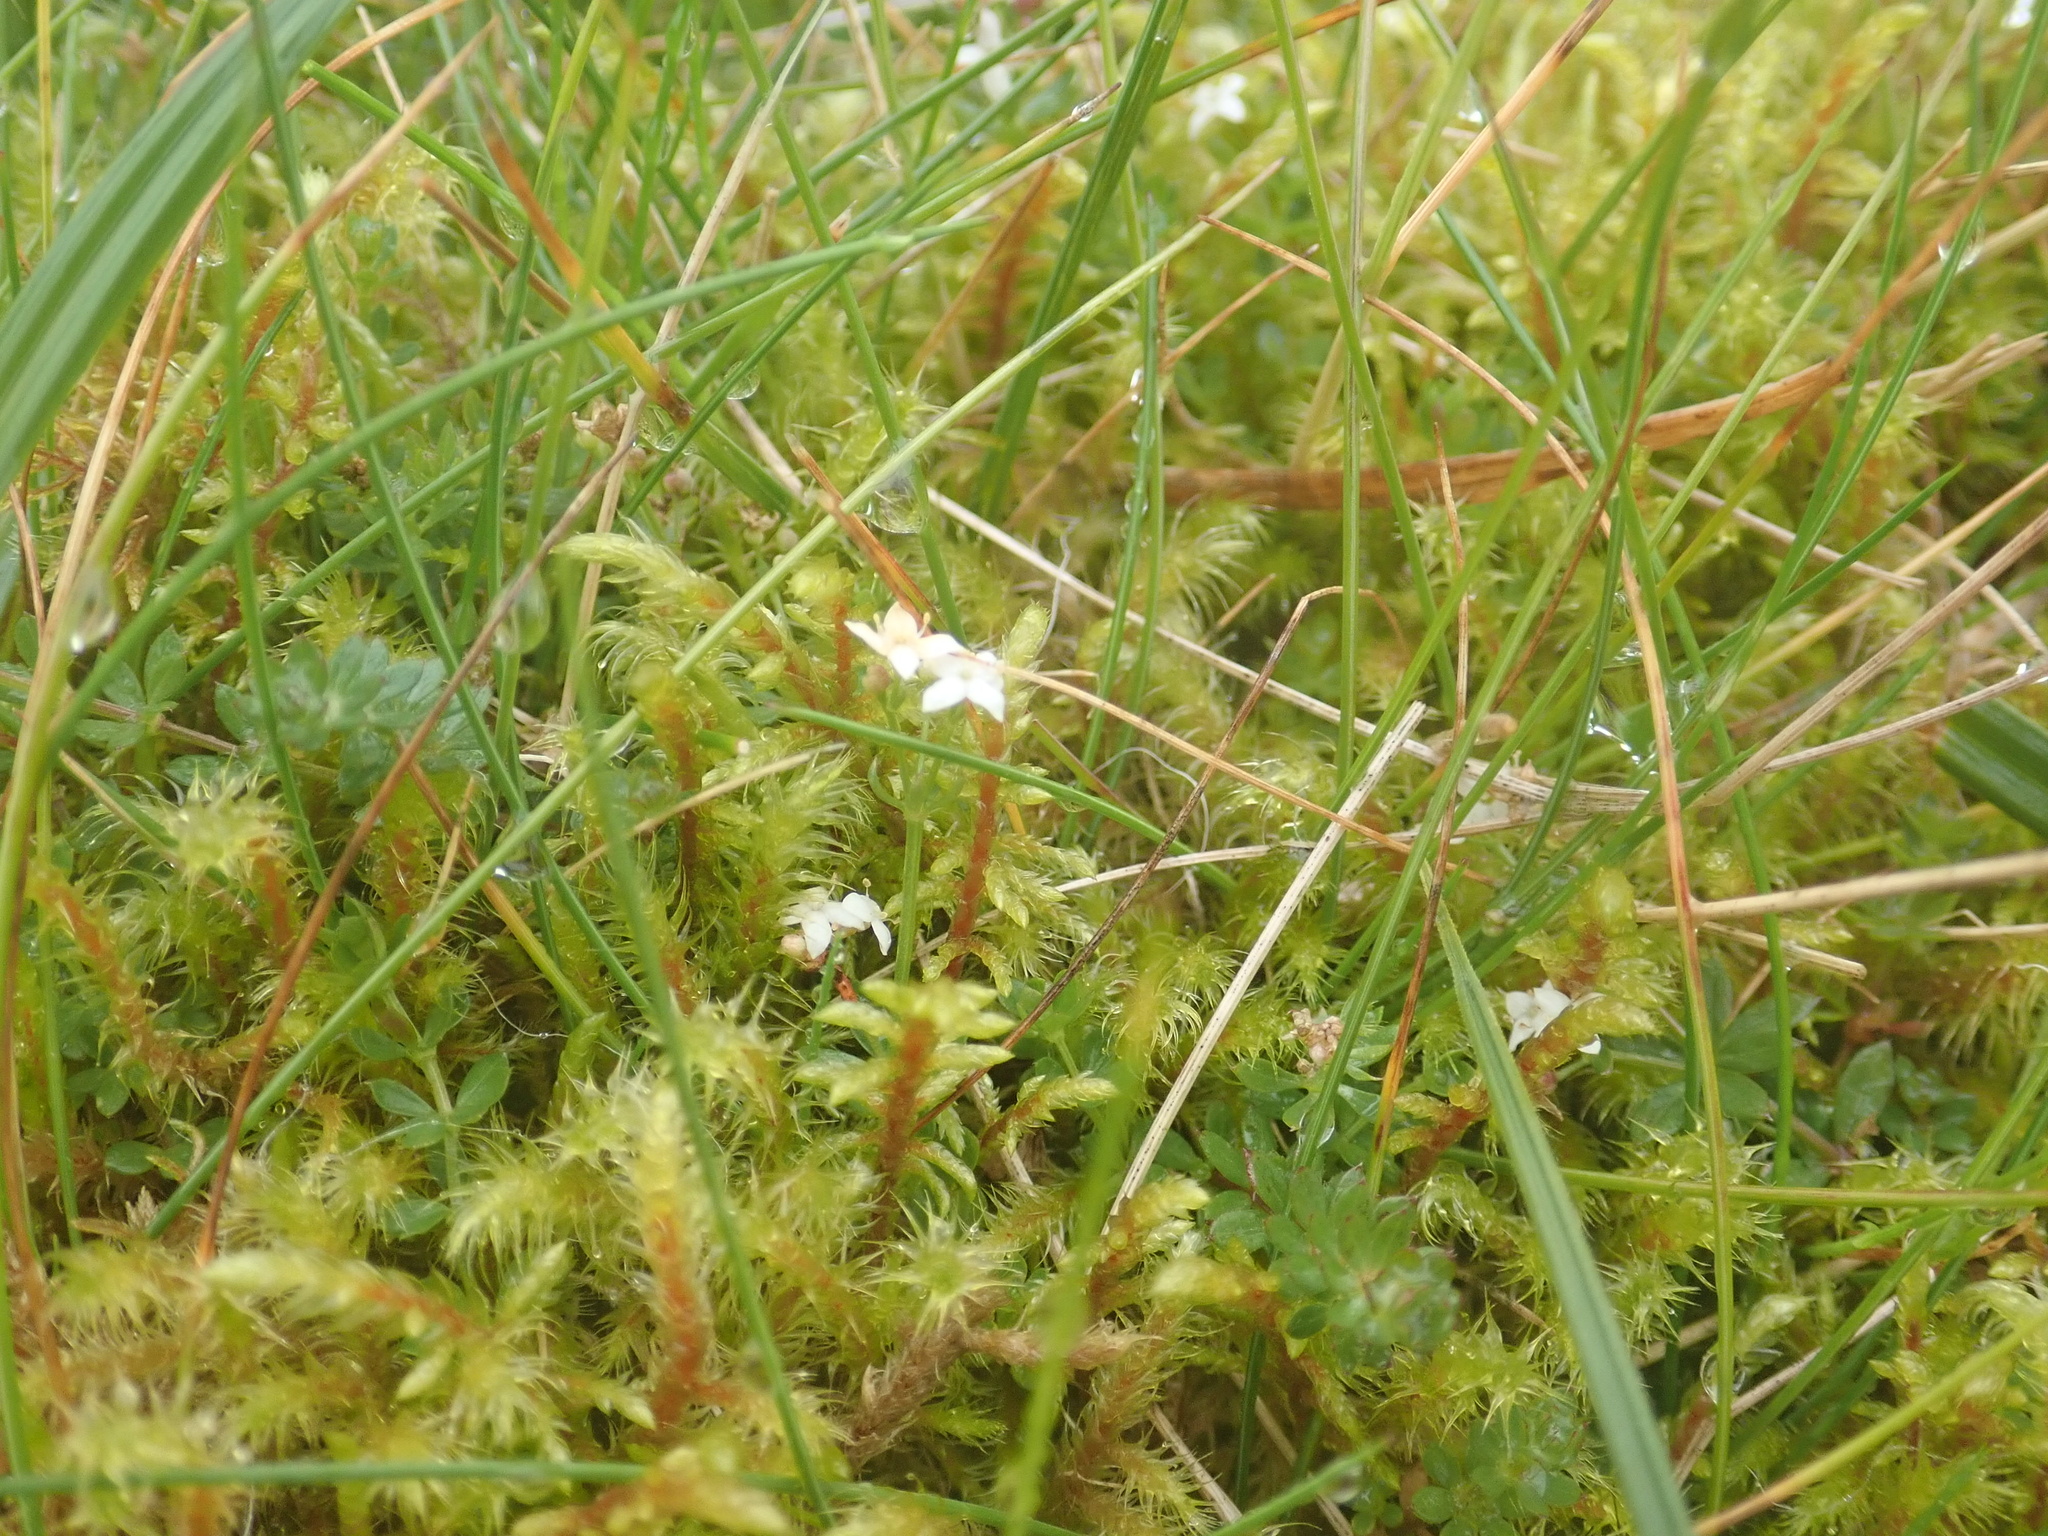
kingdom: Plantae
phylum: Tracheophyta
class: Magnoliopsida
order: Gentianales
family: Rubiaceae
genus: Galium
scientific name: Galium saxatile
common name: Heath bedstraw
